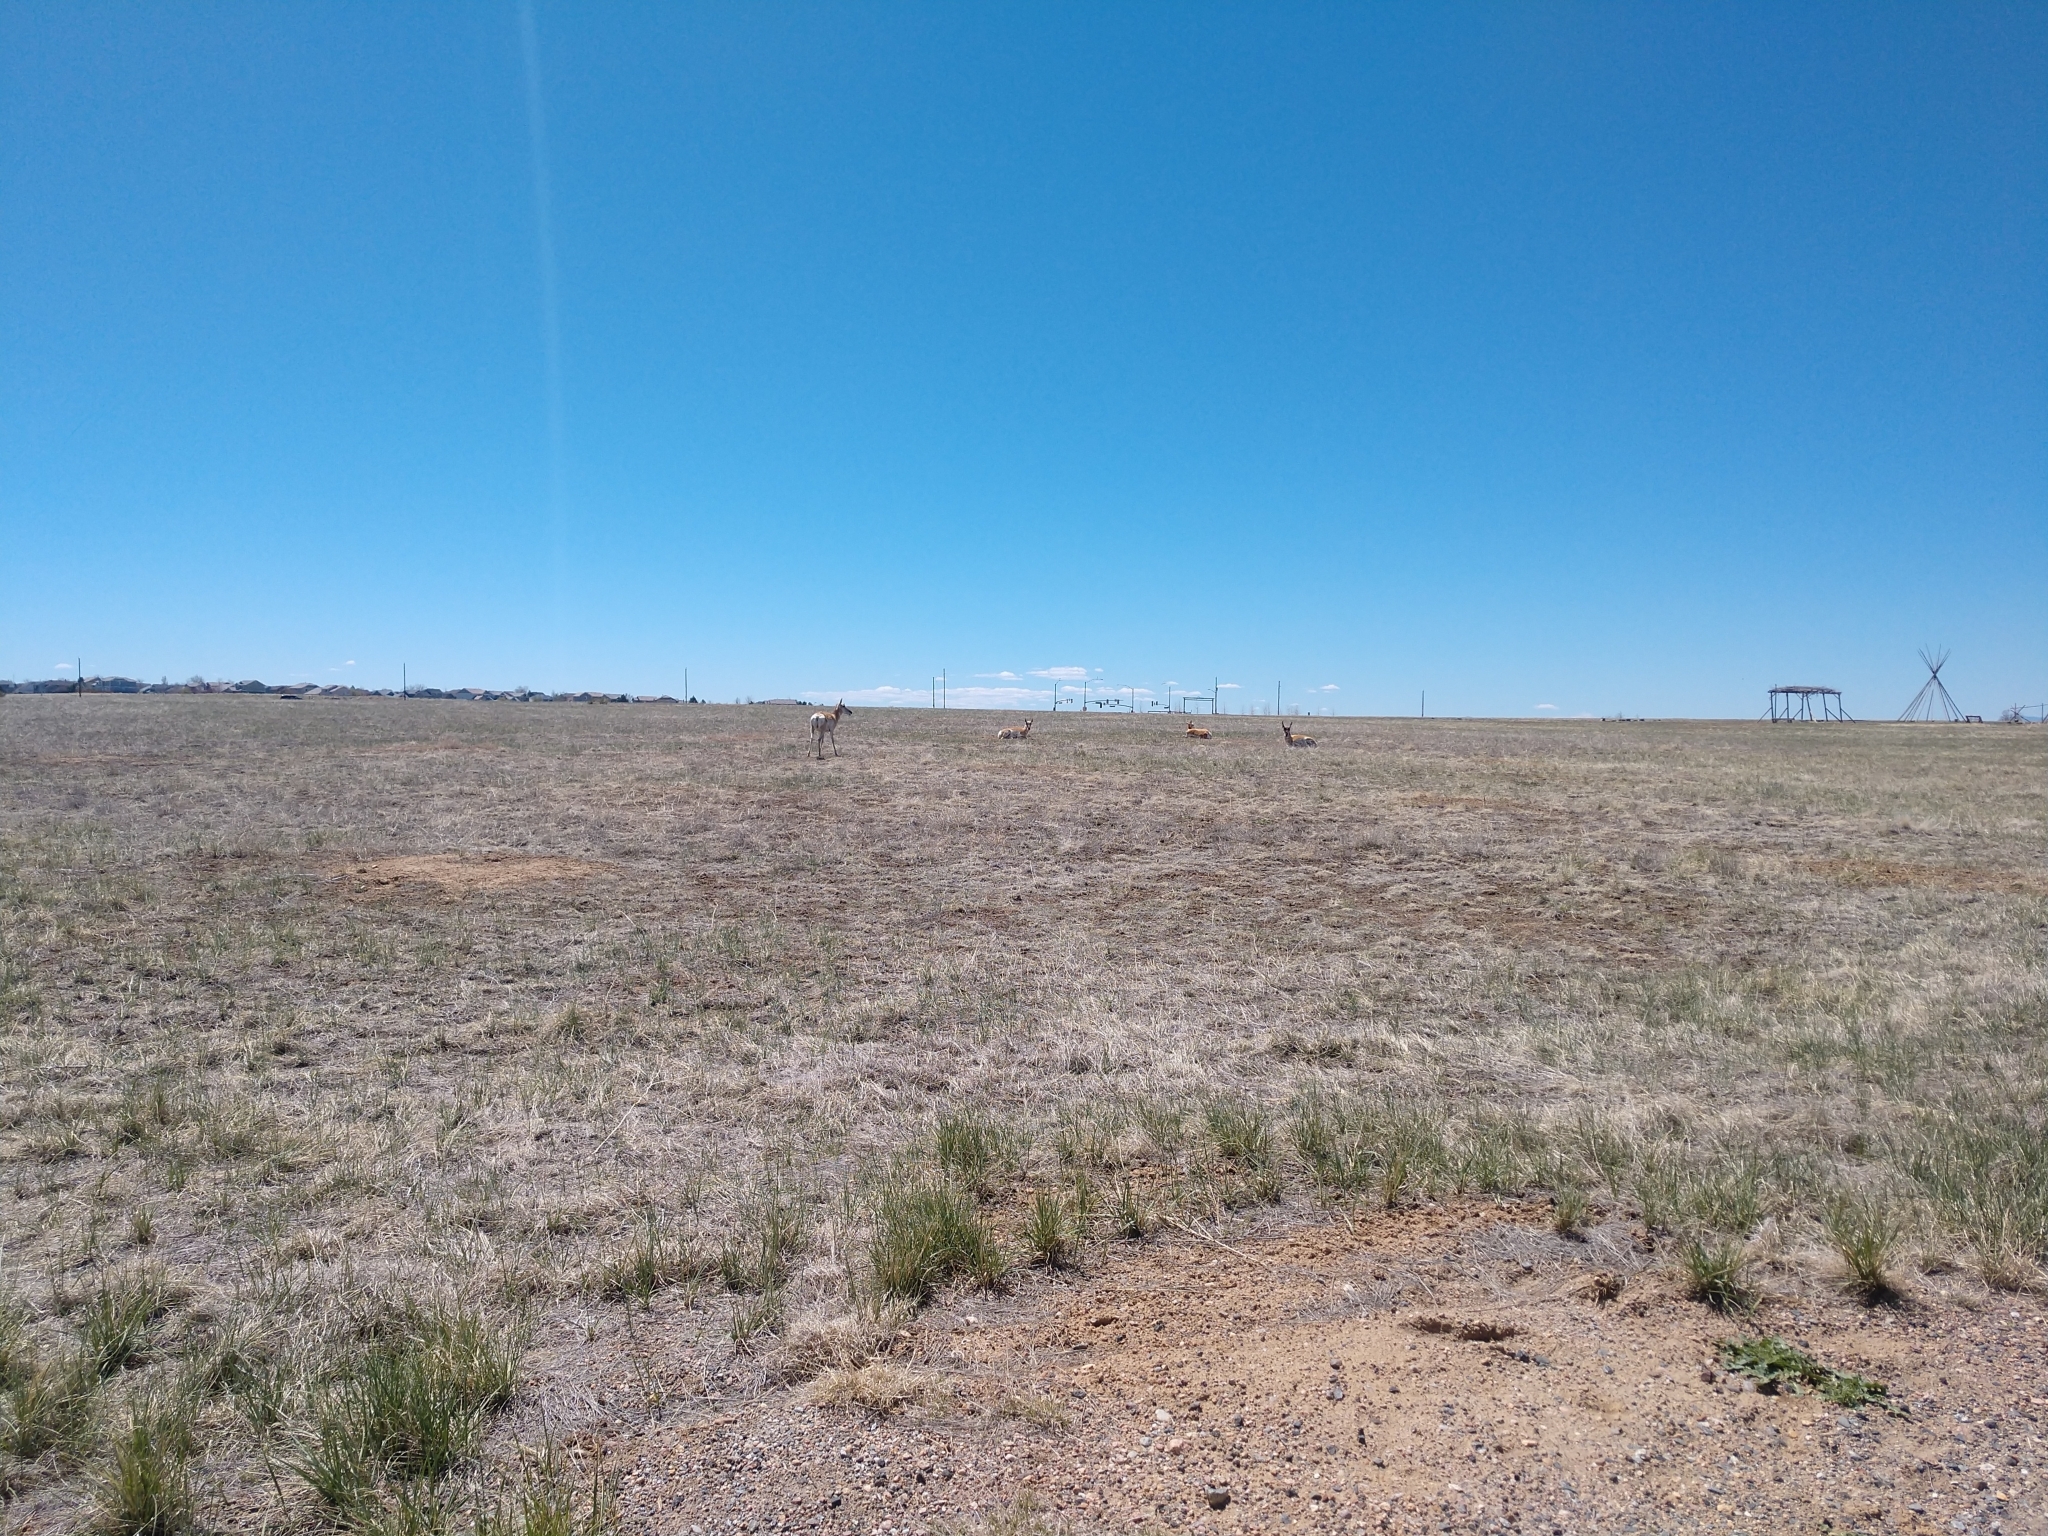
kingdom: Animalia
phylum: Chordata
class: Mammalia
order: Artiodactyla
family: Antilocapridae
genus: Antilocapra
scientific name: Antilocapra americana
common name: Pronghorn
